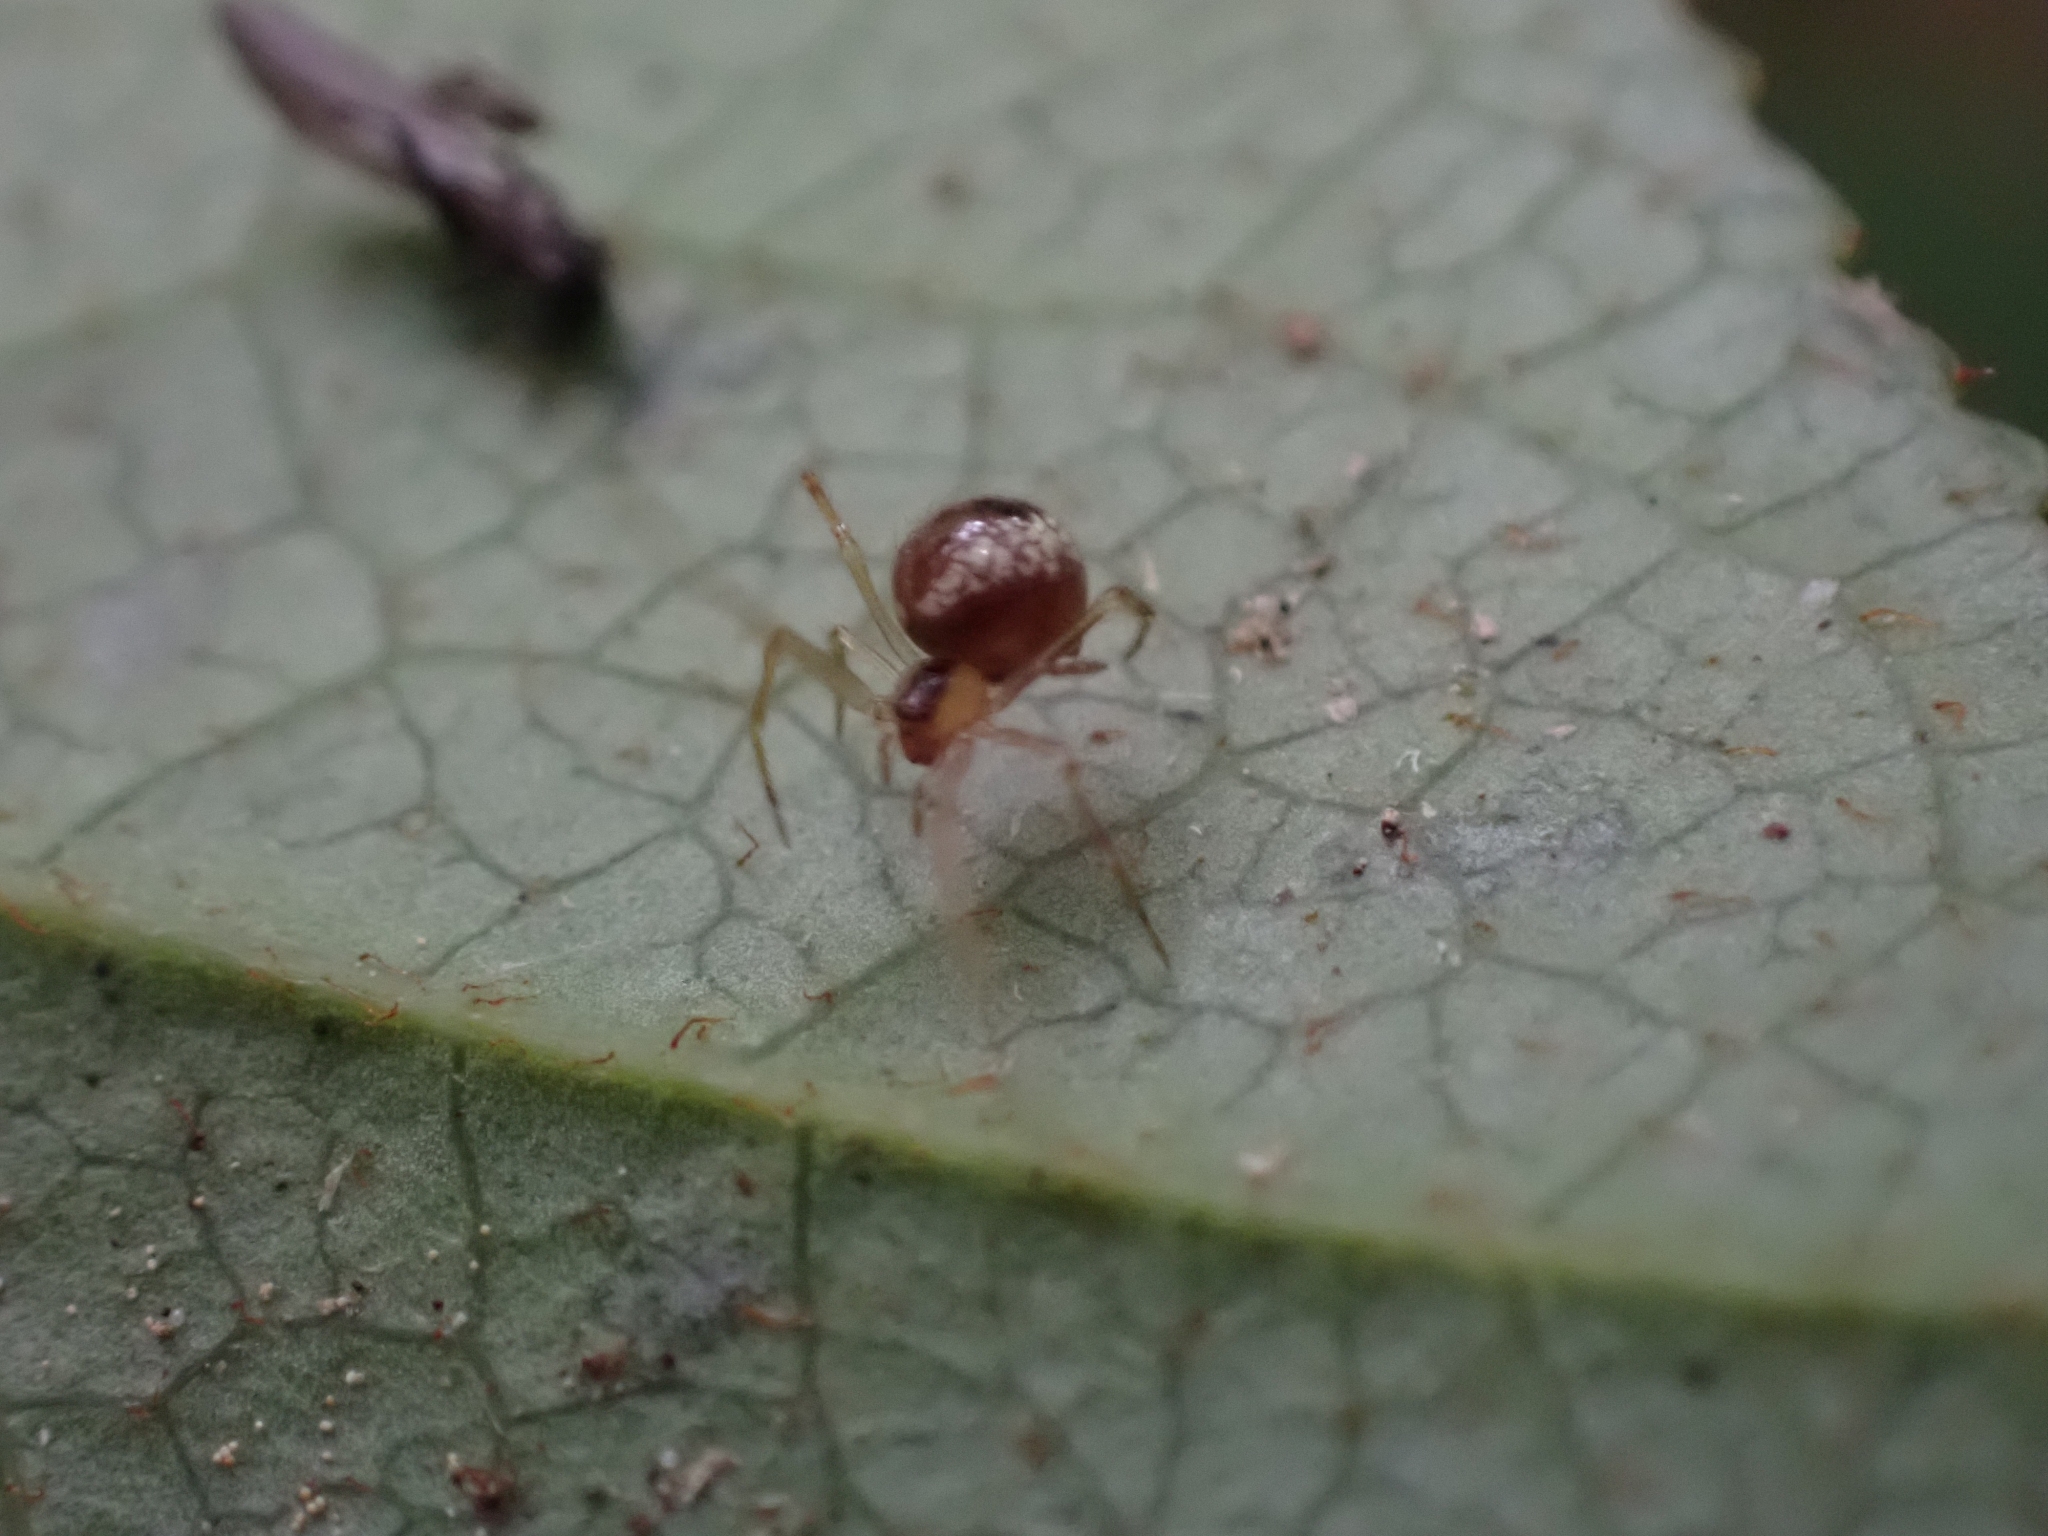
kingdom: Animalia
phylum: Arthropoda
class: Arachnida
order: Araneae
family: Theridiidae
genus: Rugathodes
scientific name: Rugathodes sexpunctatus
